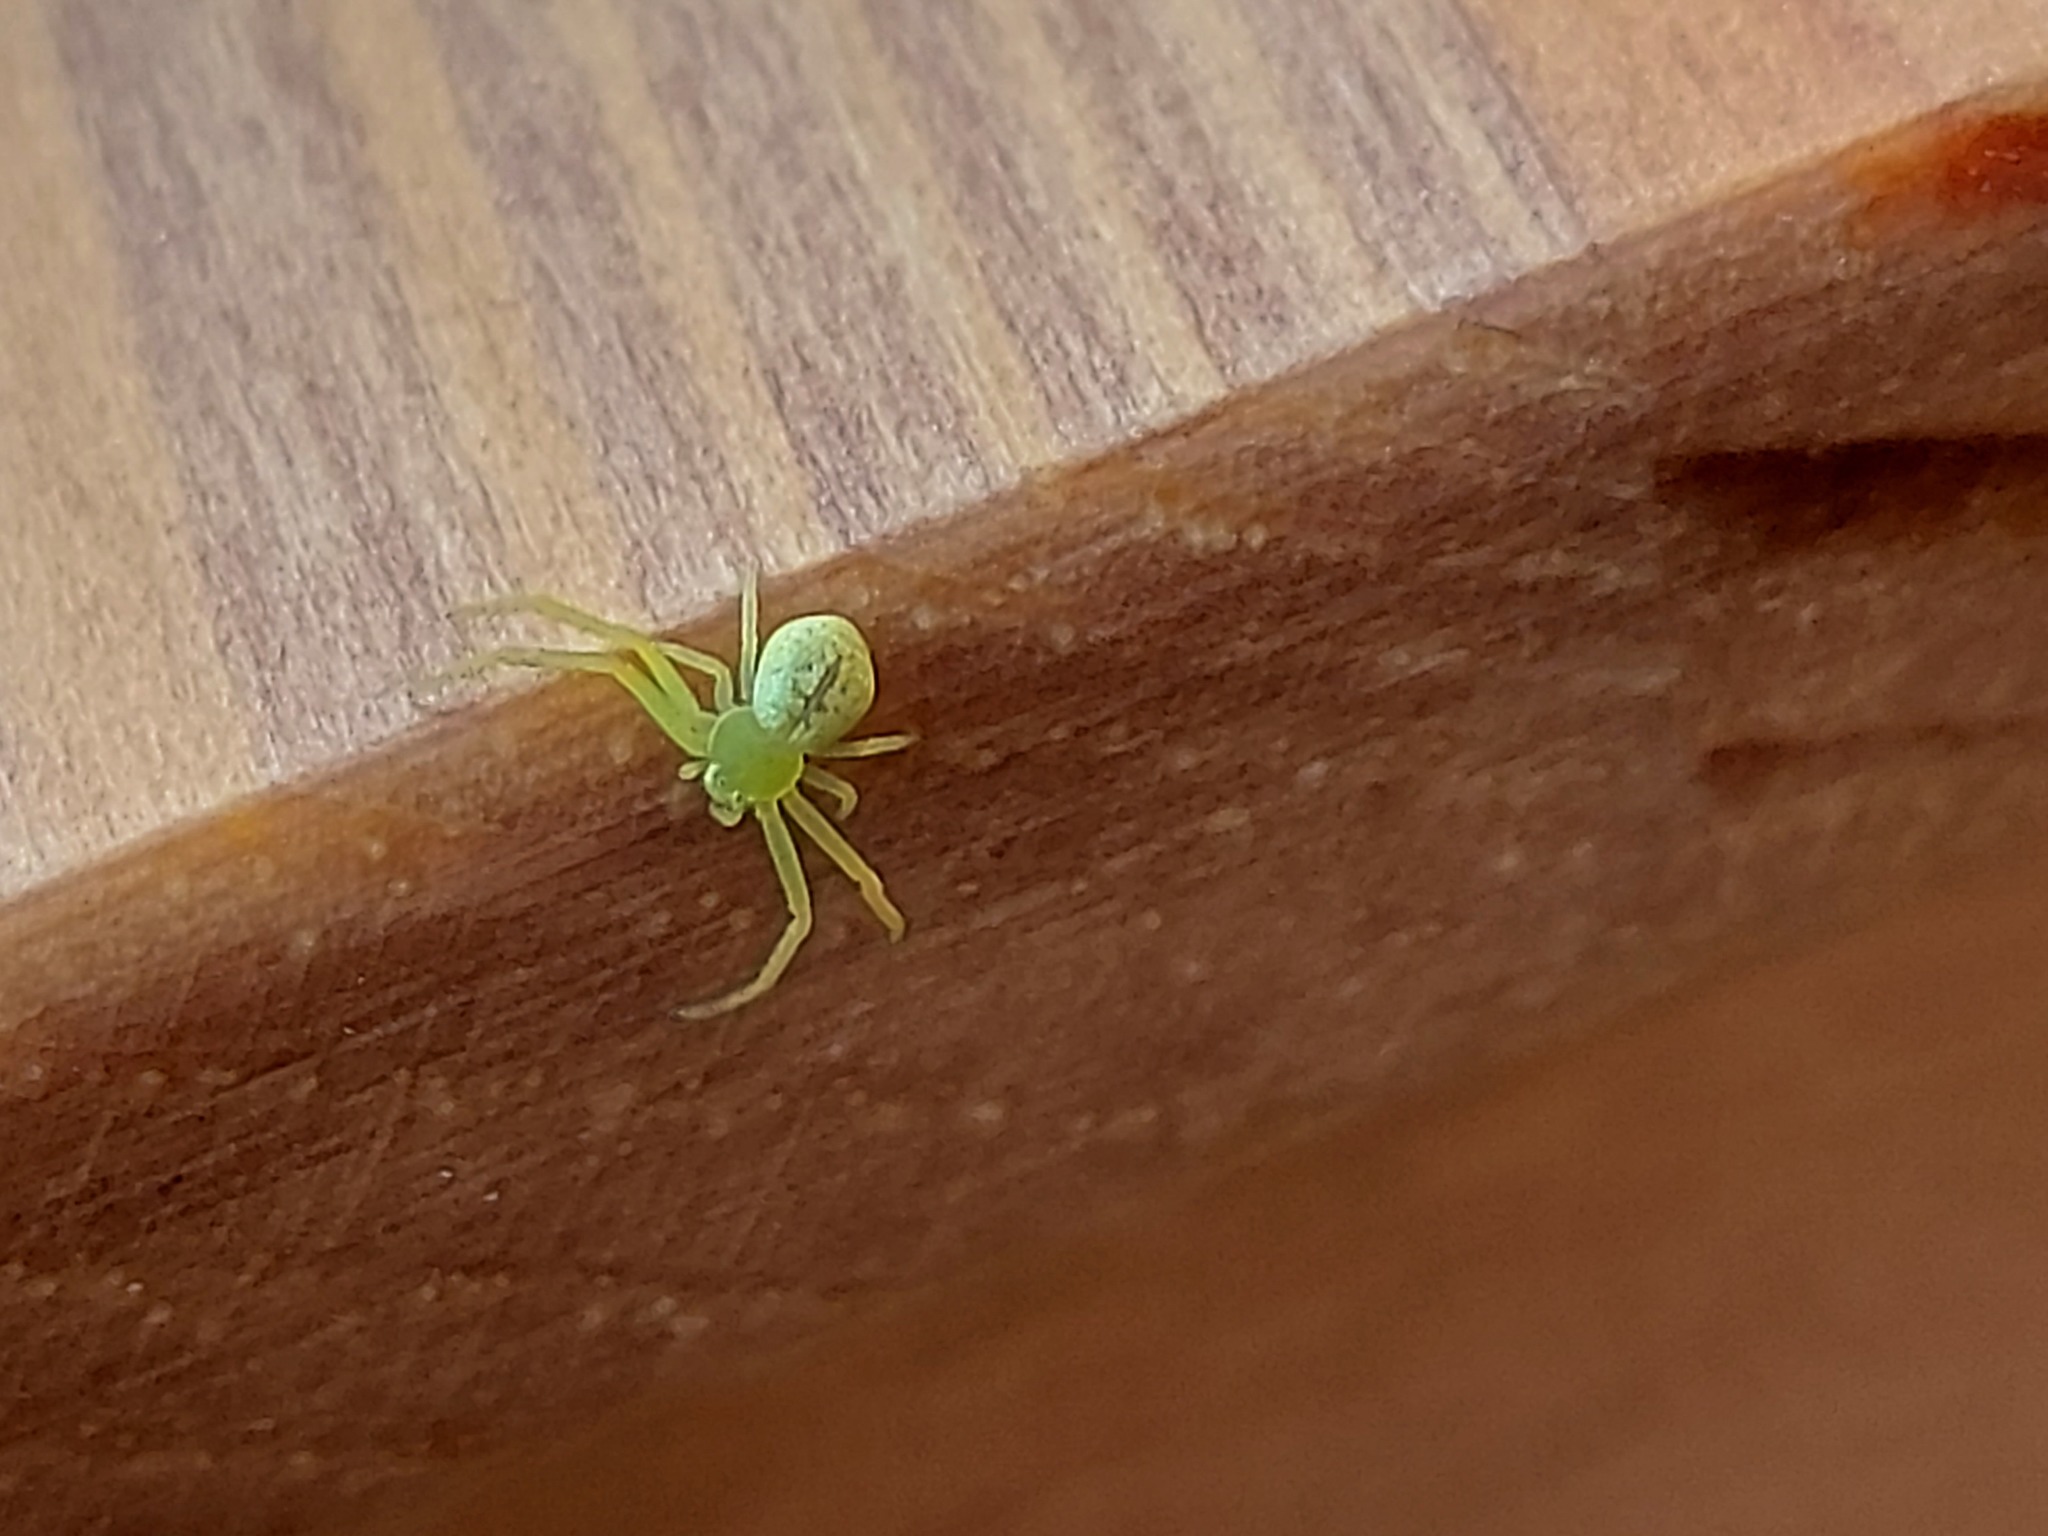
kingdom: Animalia
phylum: Arthropoda
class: Arachnida
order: Araneae
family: Thomisidae
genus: Ebrechtella
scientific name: Ebrechtella tricuspidata
